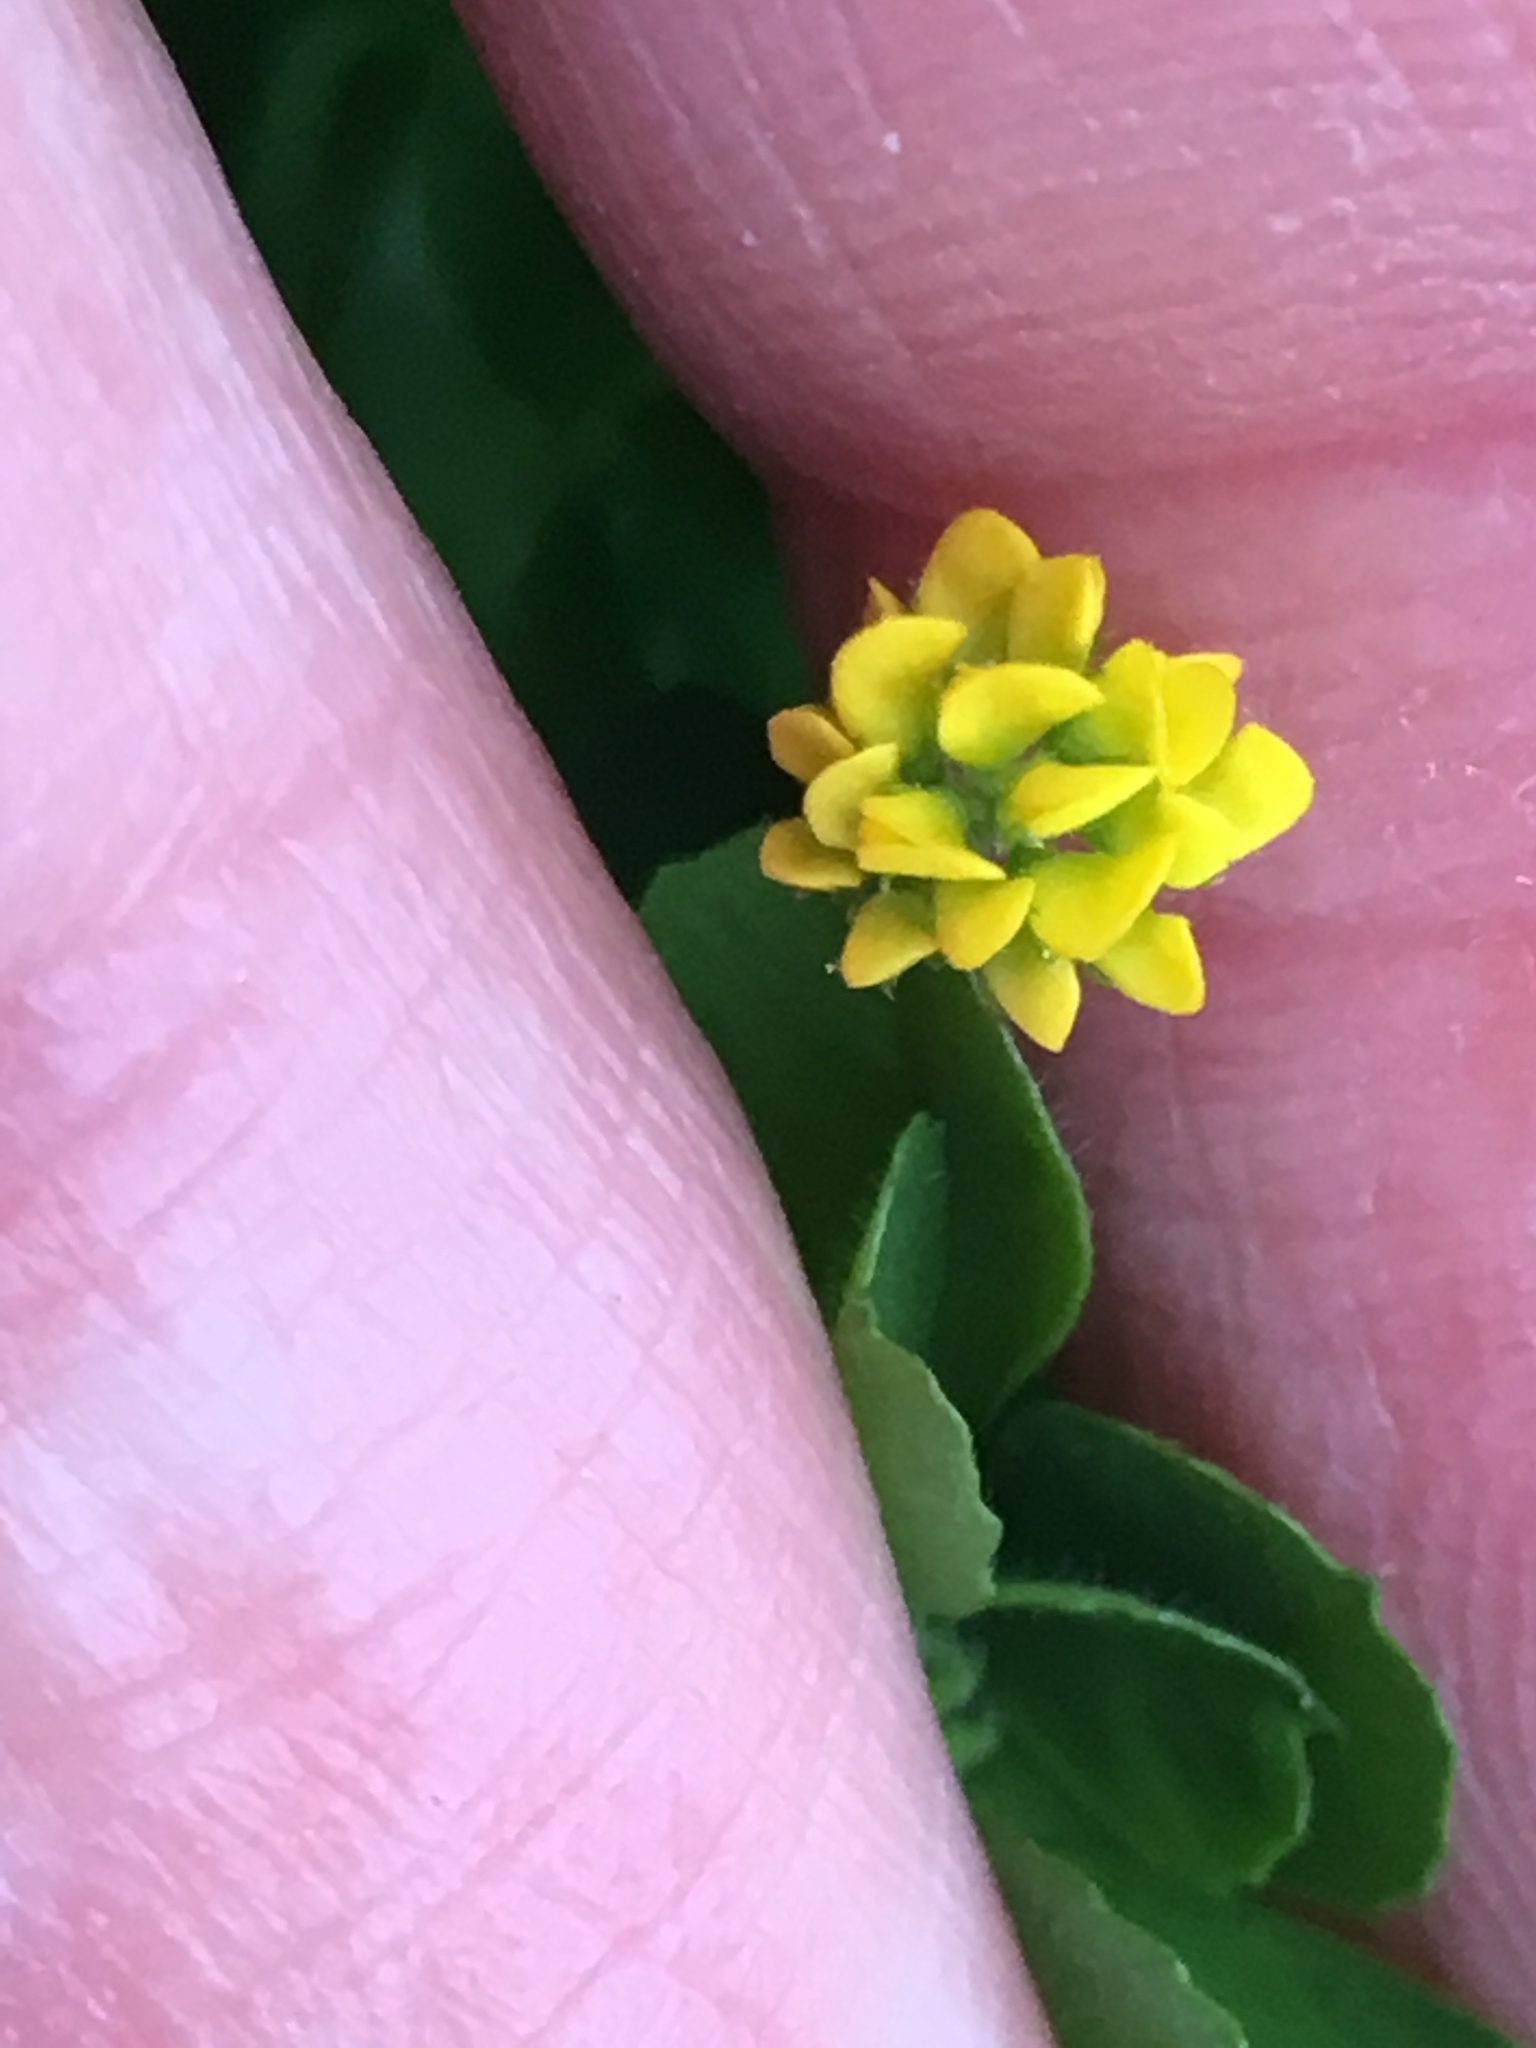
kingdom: Plantae
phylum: Tracheophyta
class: Magnoliopsida
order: Fabales
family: Fabaceae
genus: Medicago
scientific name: Medicago lupulina
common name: Black medick
